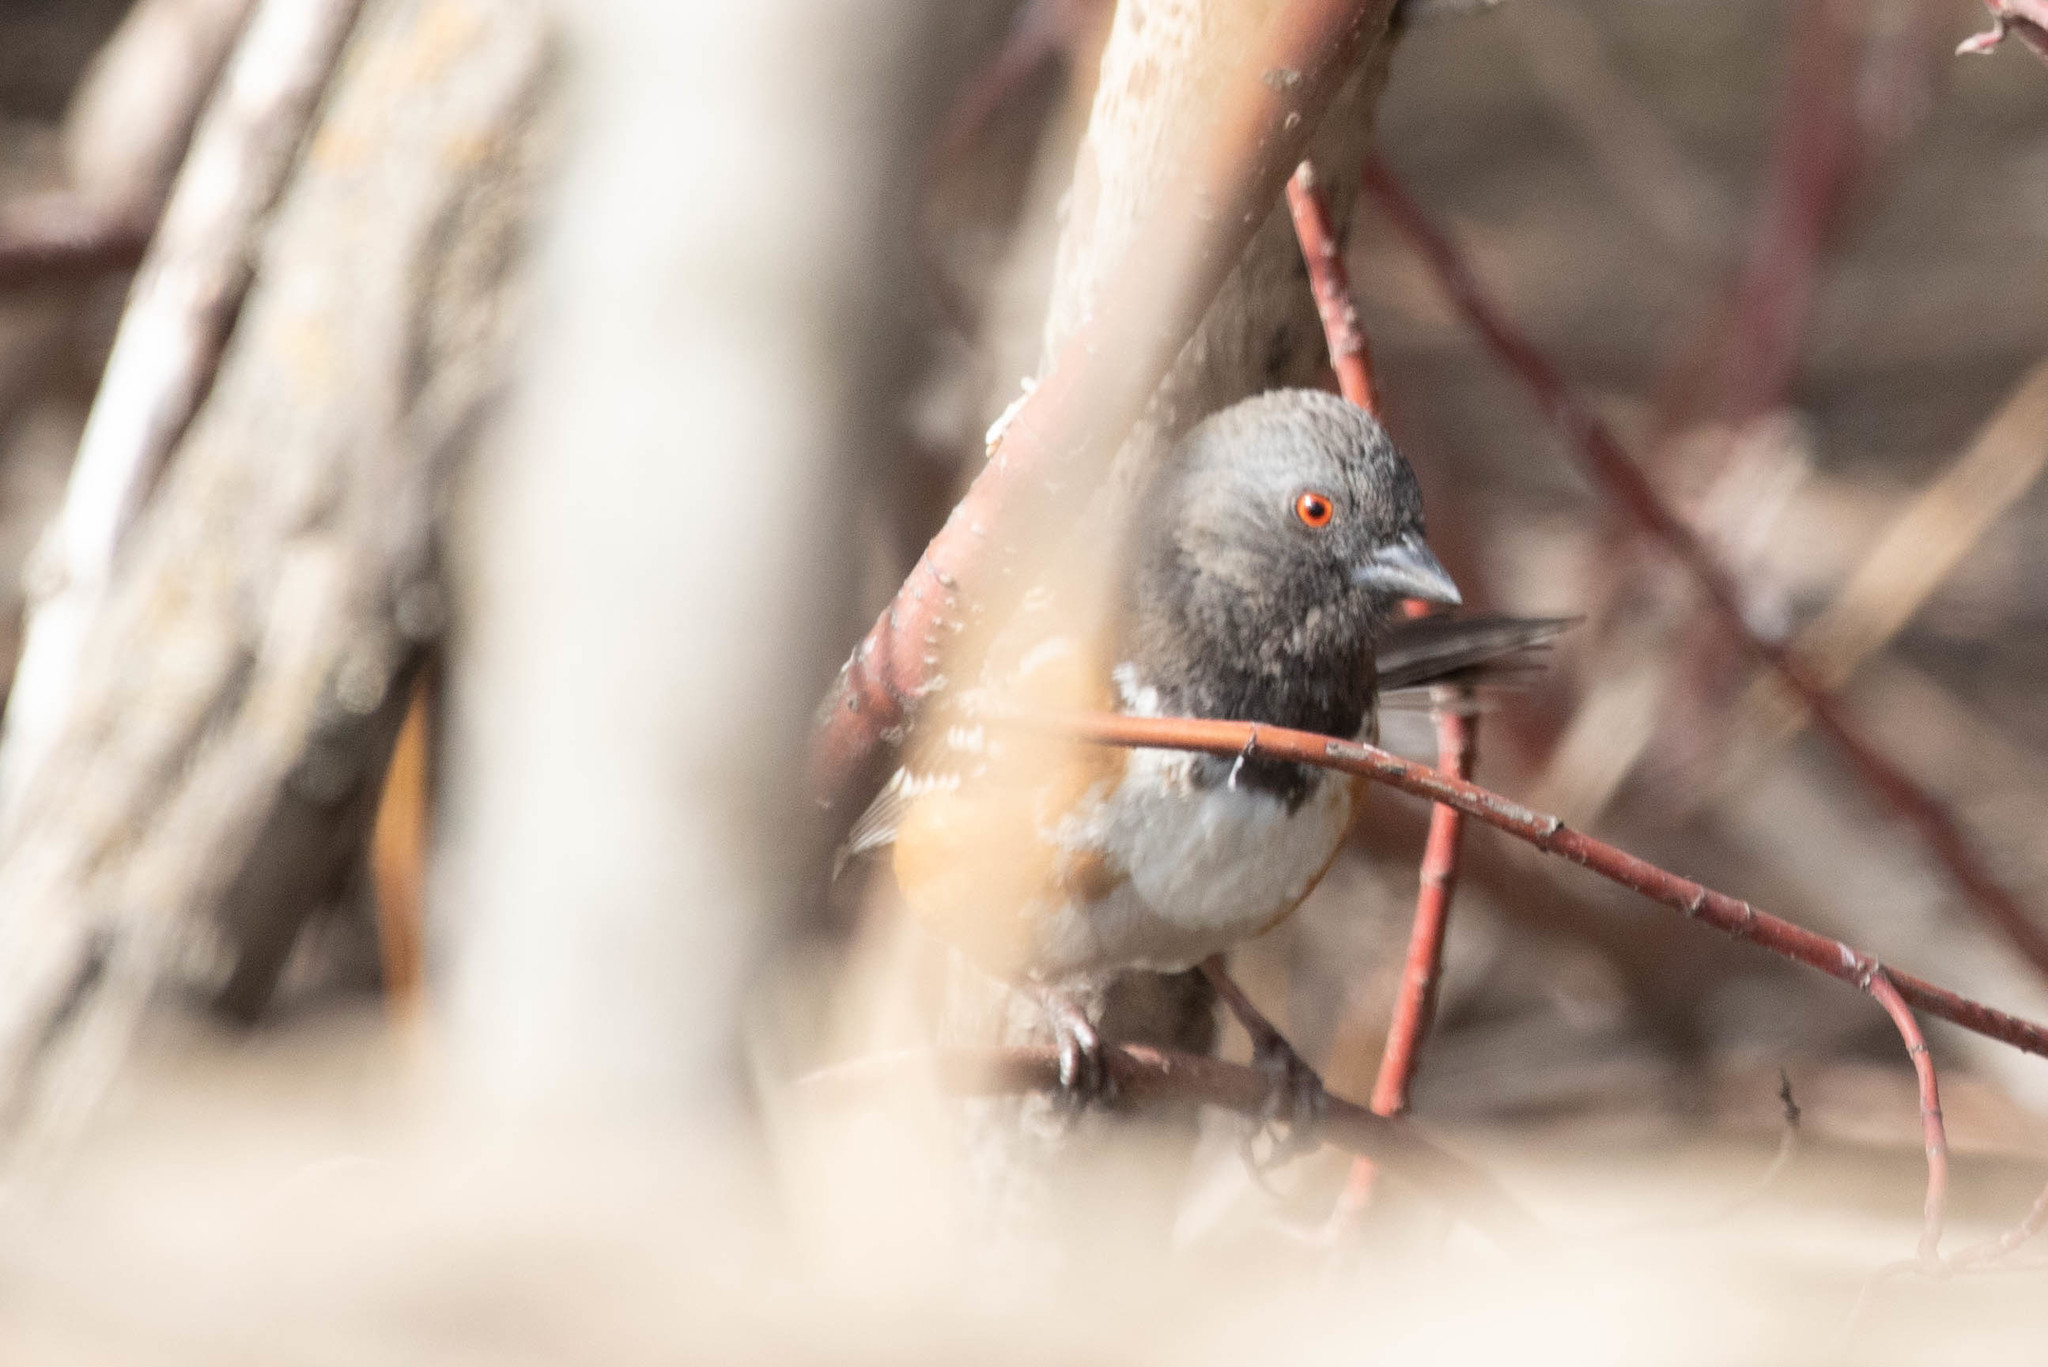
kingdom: Animalia
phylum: Chordata
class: Aves
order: Passeriformes
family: Passerellidae
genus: Pipilo
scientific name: Pipilo maculatus
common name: Spotted towhee
